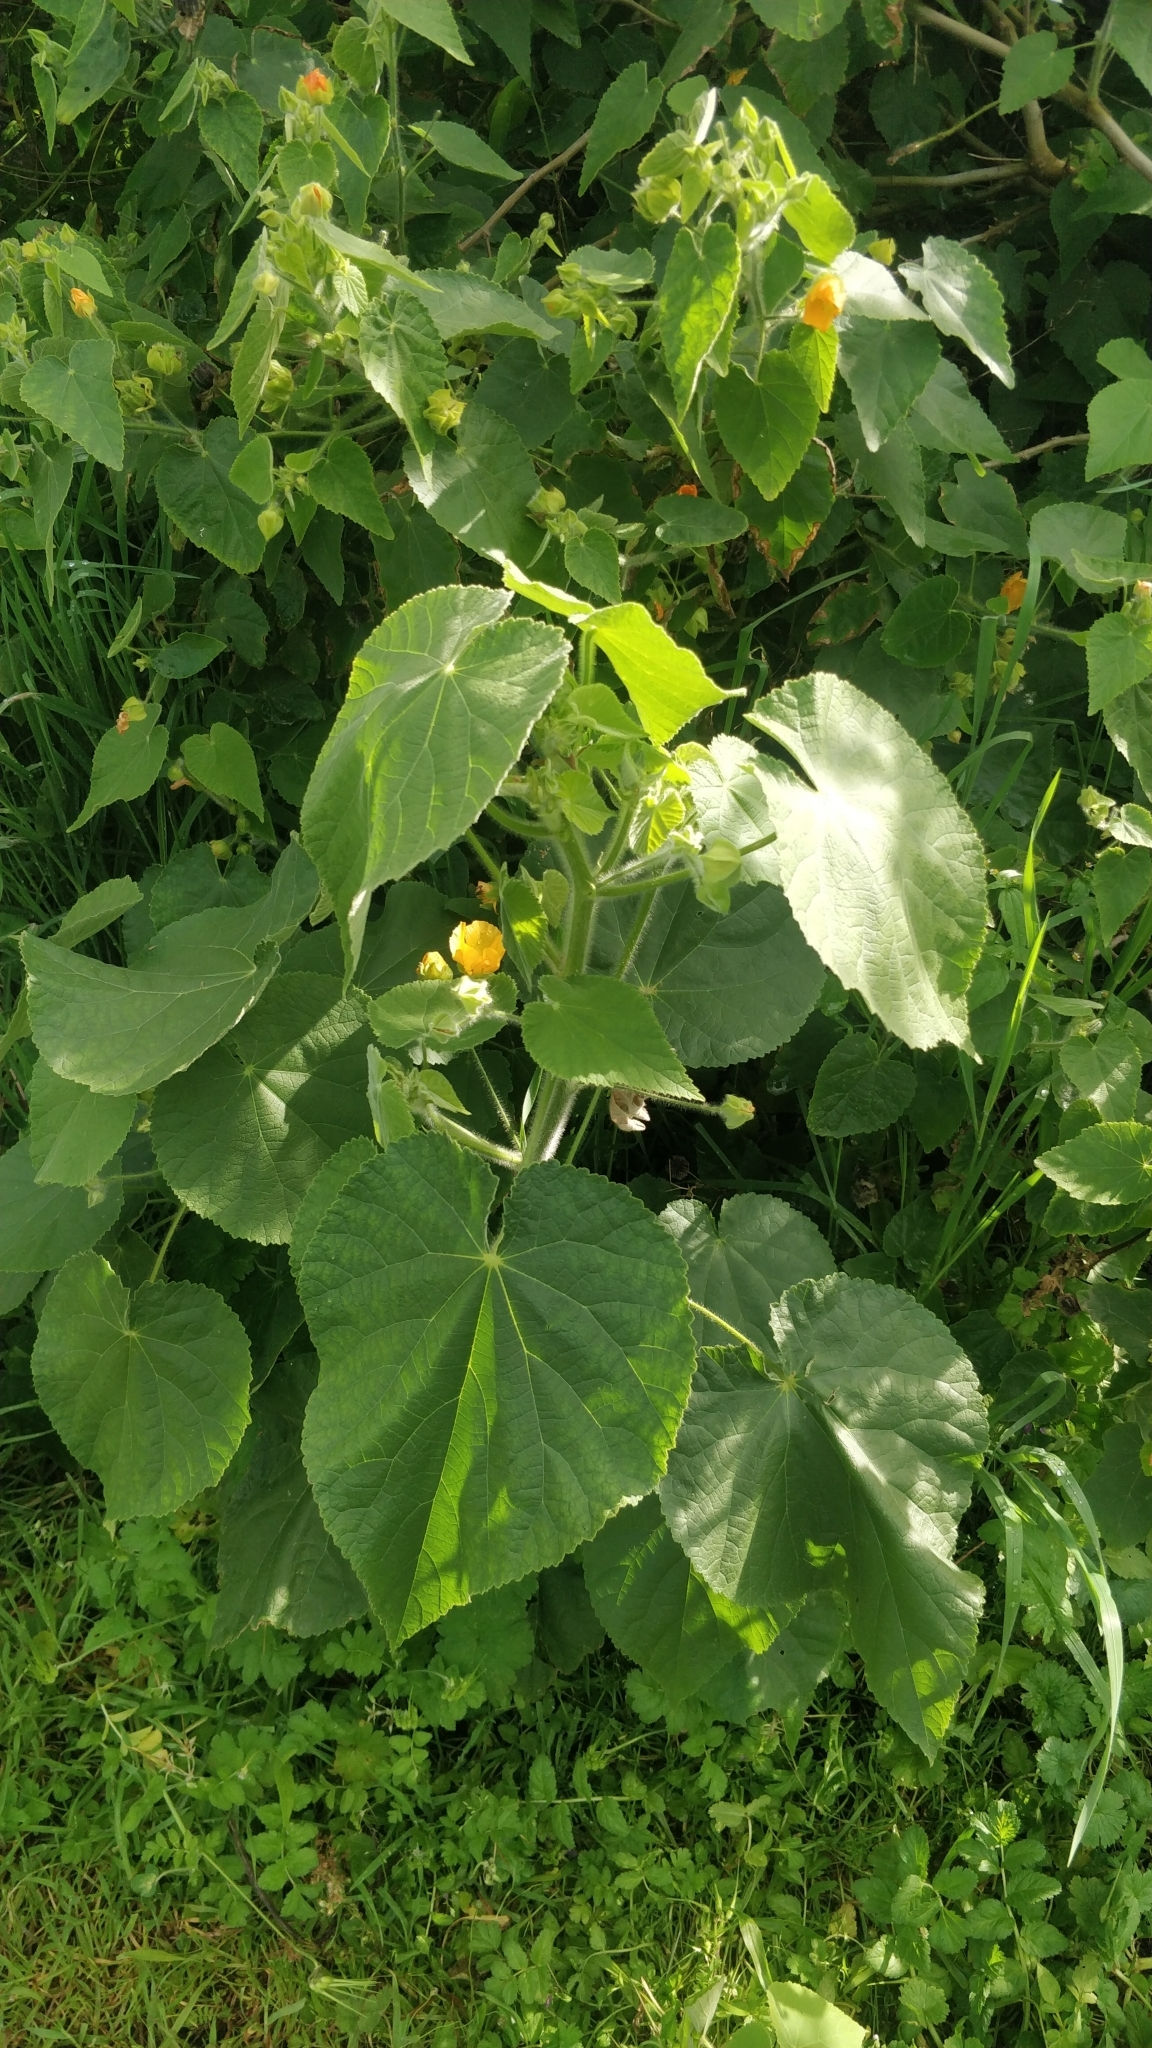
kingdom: Plantae
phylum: Tracheophyta
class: Magnoliopsida
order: Malvales
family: Malvaceae
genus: Abutilon
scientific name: Abutilon grandifolium
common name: Hairy abutilon
